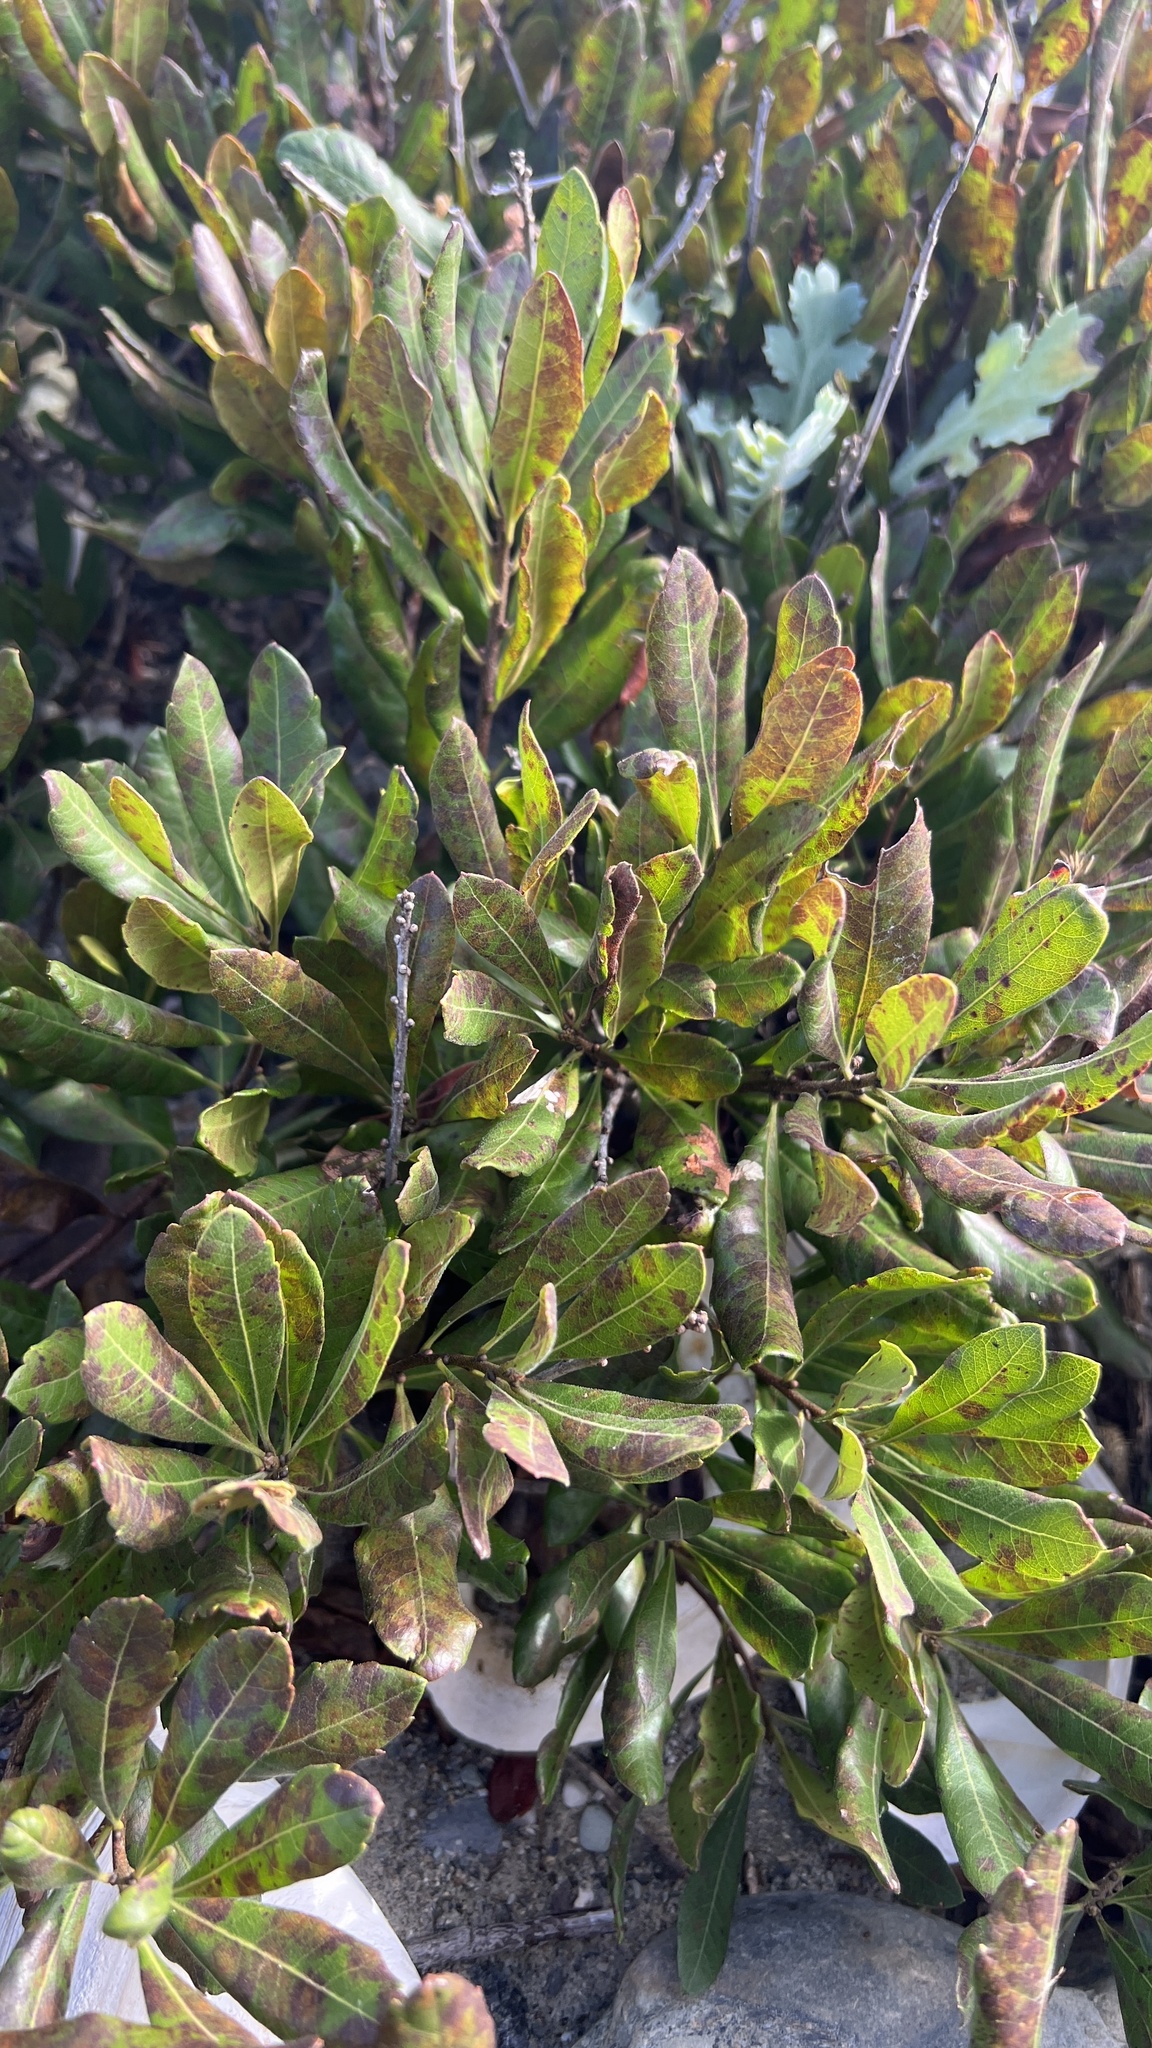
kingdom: Plantae
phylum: Tracheophyta
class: Magnoliopsida
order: Fagales
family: Myricaceae
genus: Morella
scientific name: Morella pensylvanica
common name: Northern bayberry
